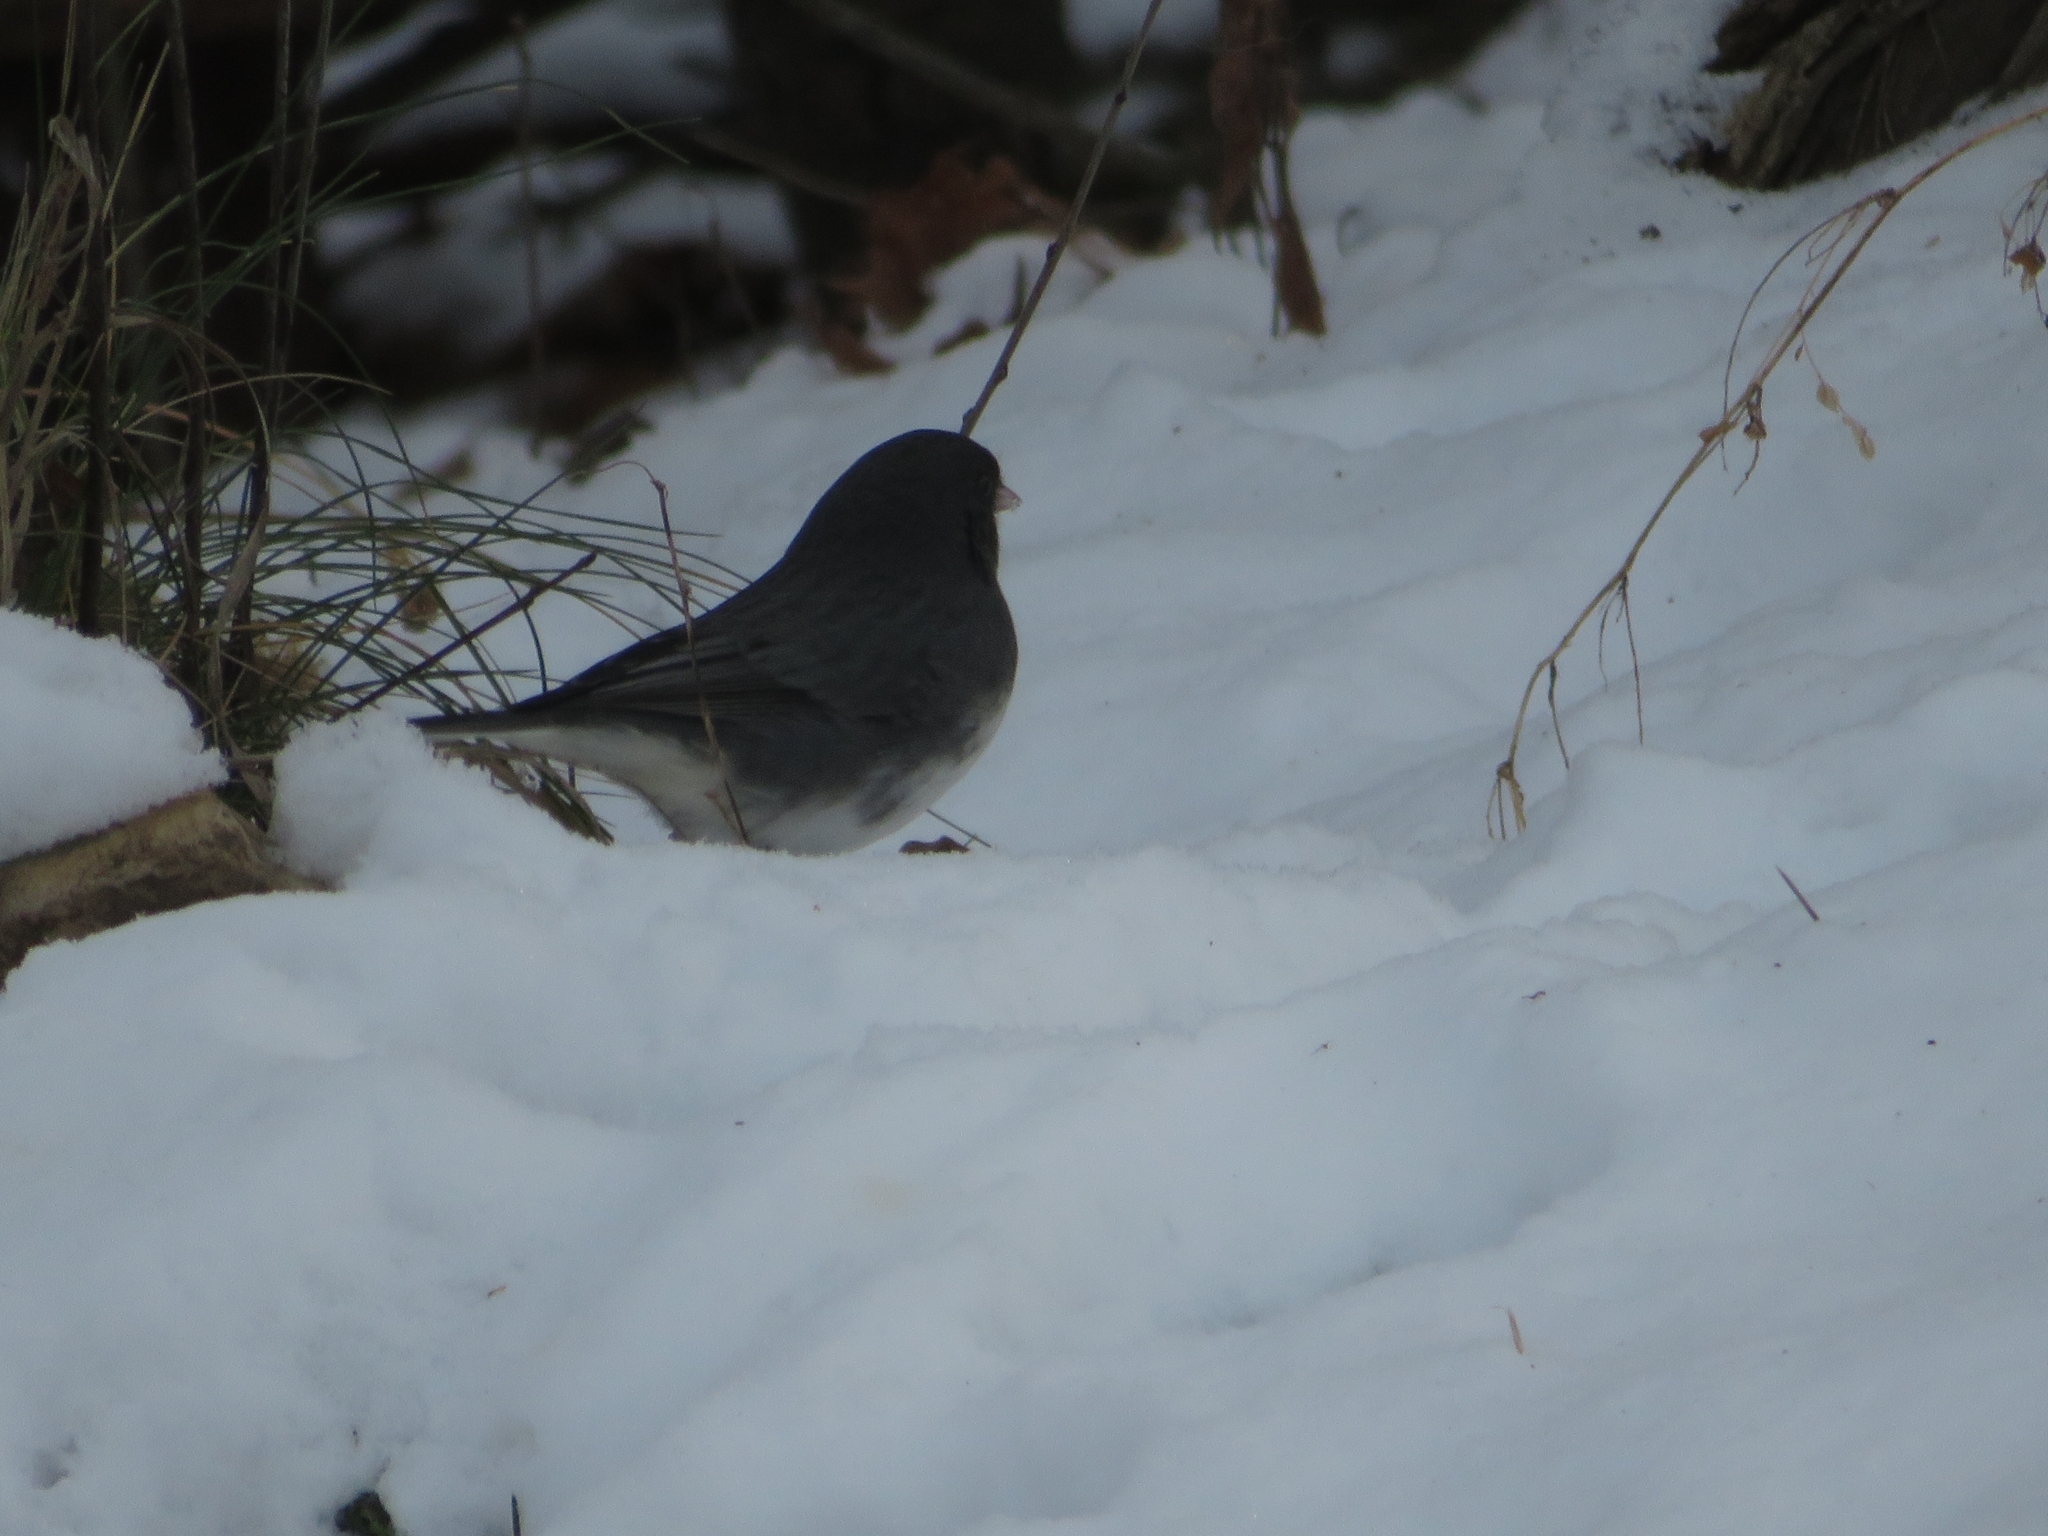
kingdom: Animalia
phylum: Chordata
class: Aves
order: Passeriformes
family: Passerellidae
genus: Junco
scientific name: Junco hyemalis
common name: Dark-eyed junco
